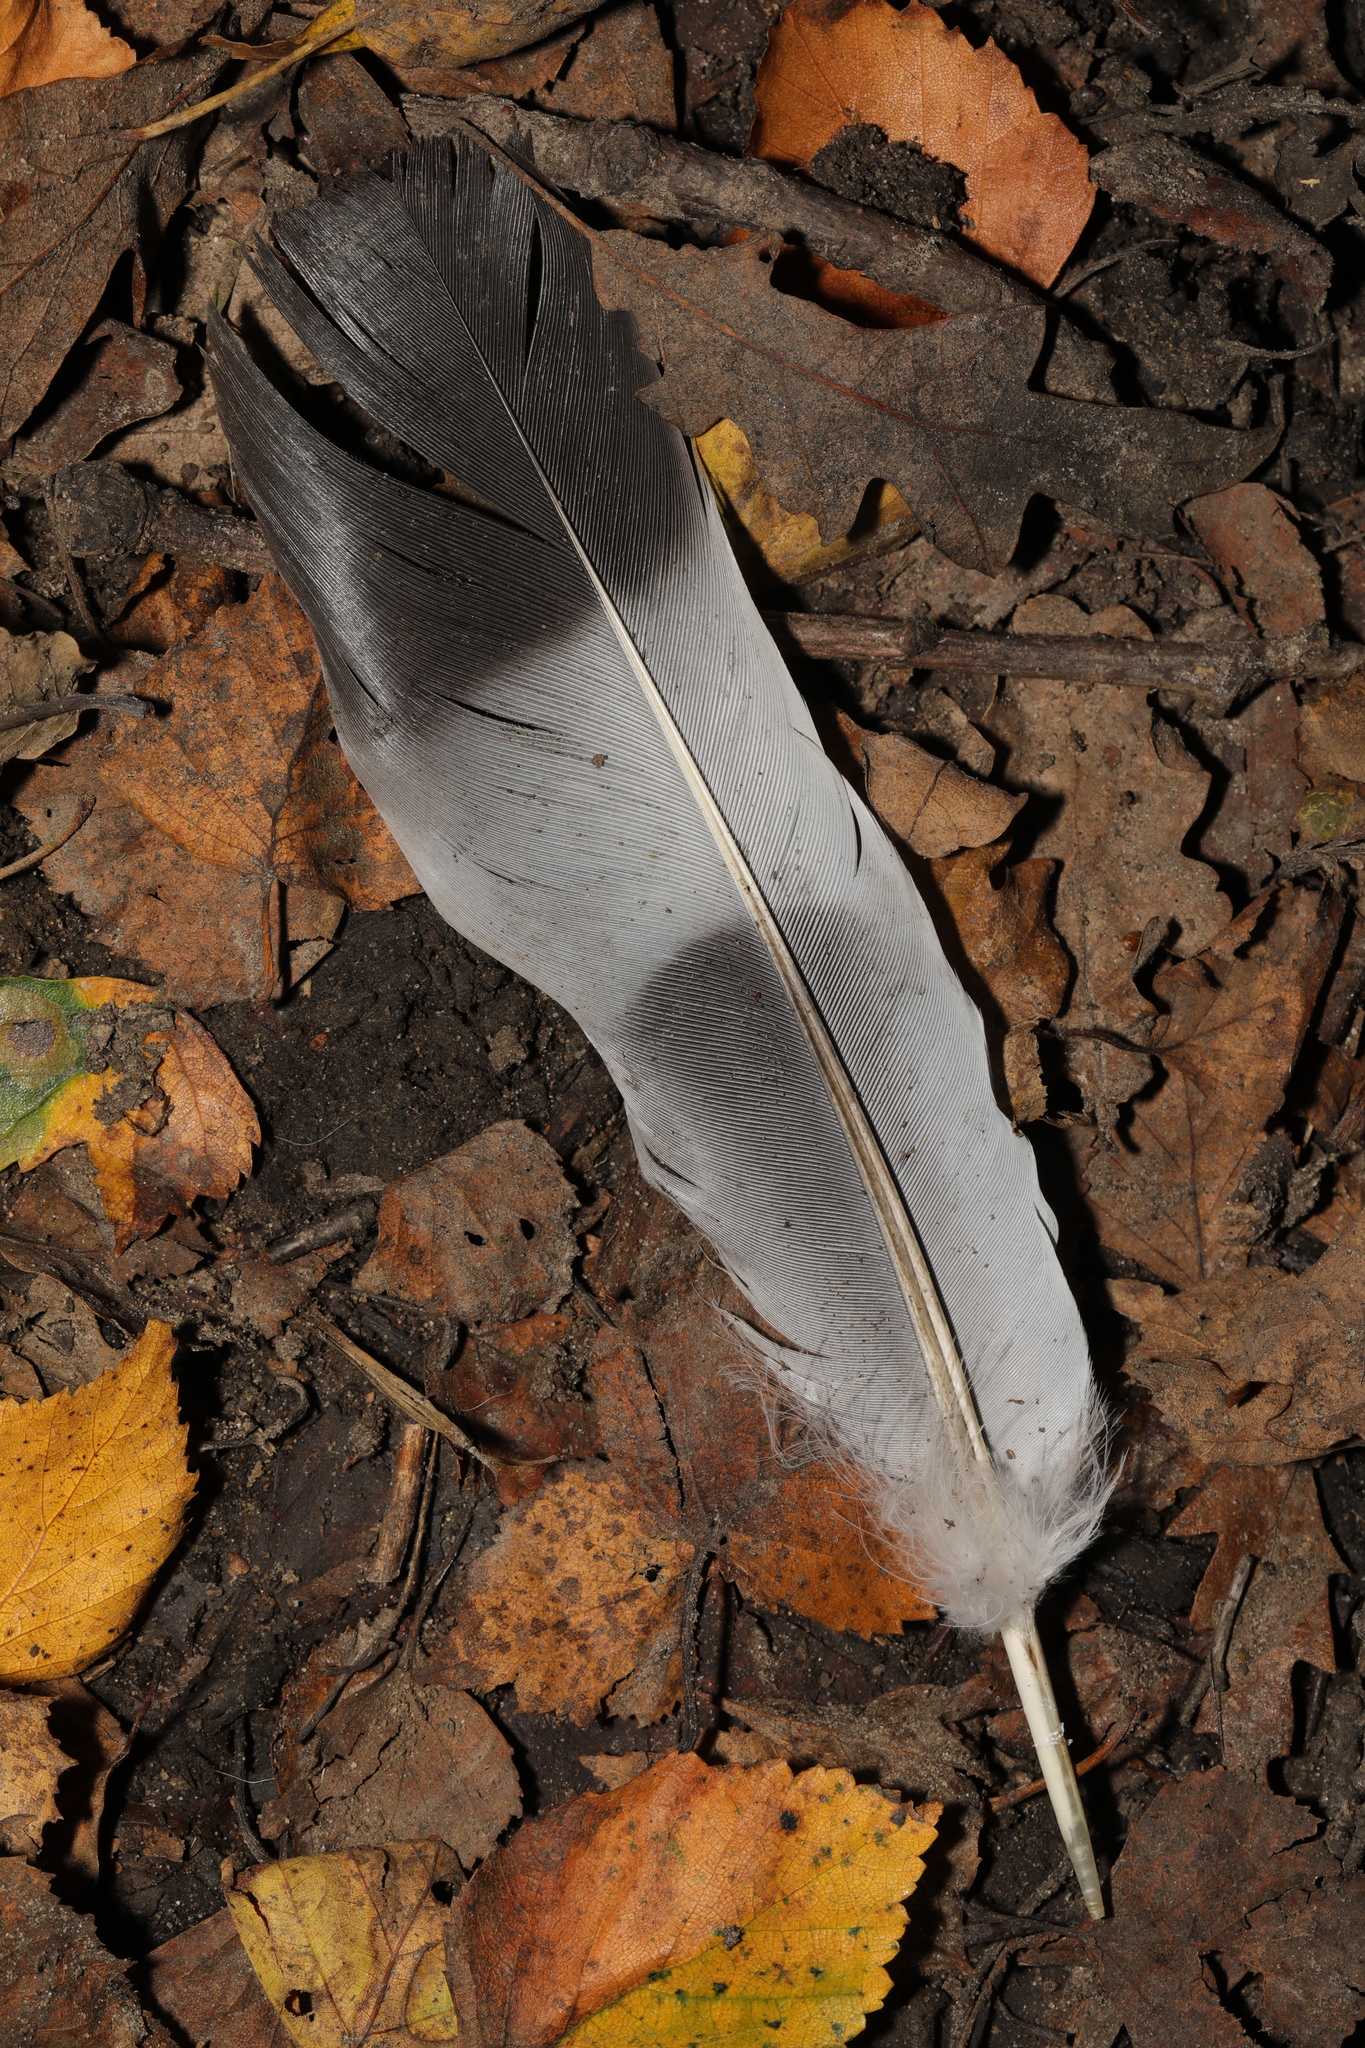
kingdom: Animalia
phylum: Chordata
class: Aves
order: Columbiformes
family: Columbidae
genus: Columba
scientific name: Columba palumbus
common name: Common wood pigeon
